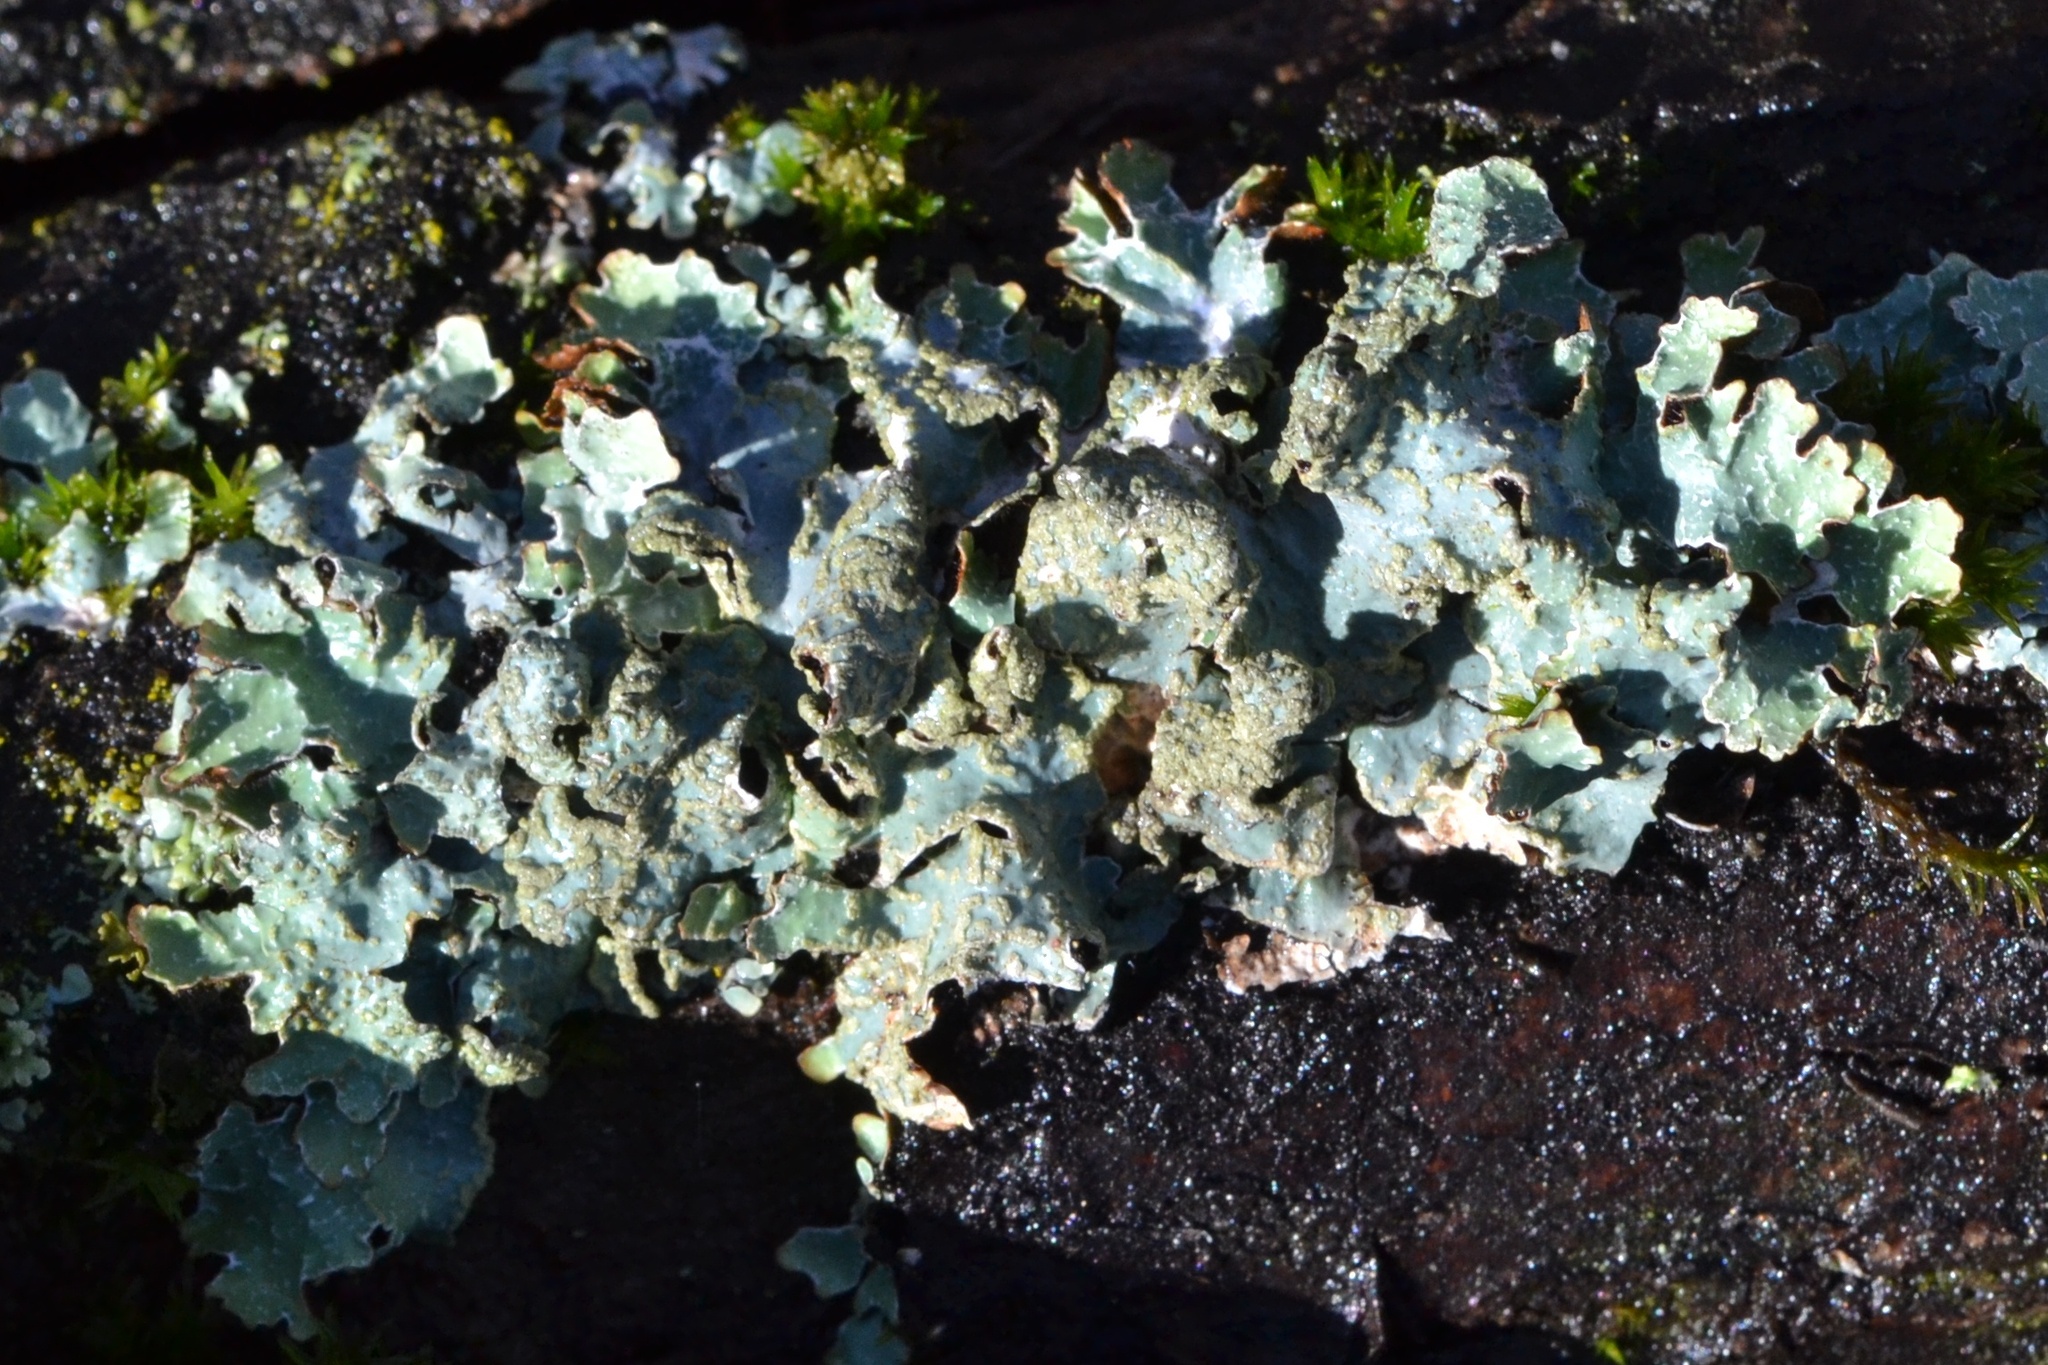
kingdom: Fungi
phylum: Ascomycota
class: Lecanoromycetes
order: Lecanorales
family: Parmeliaceae
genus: Parmelia
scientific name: Parmelia sulcata
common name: Netted shield lichen
